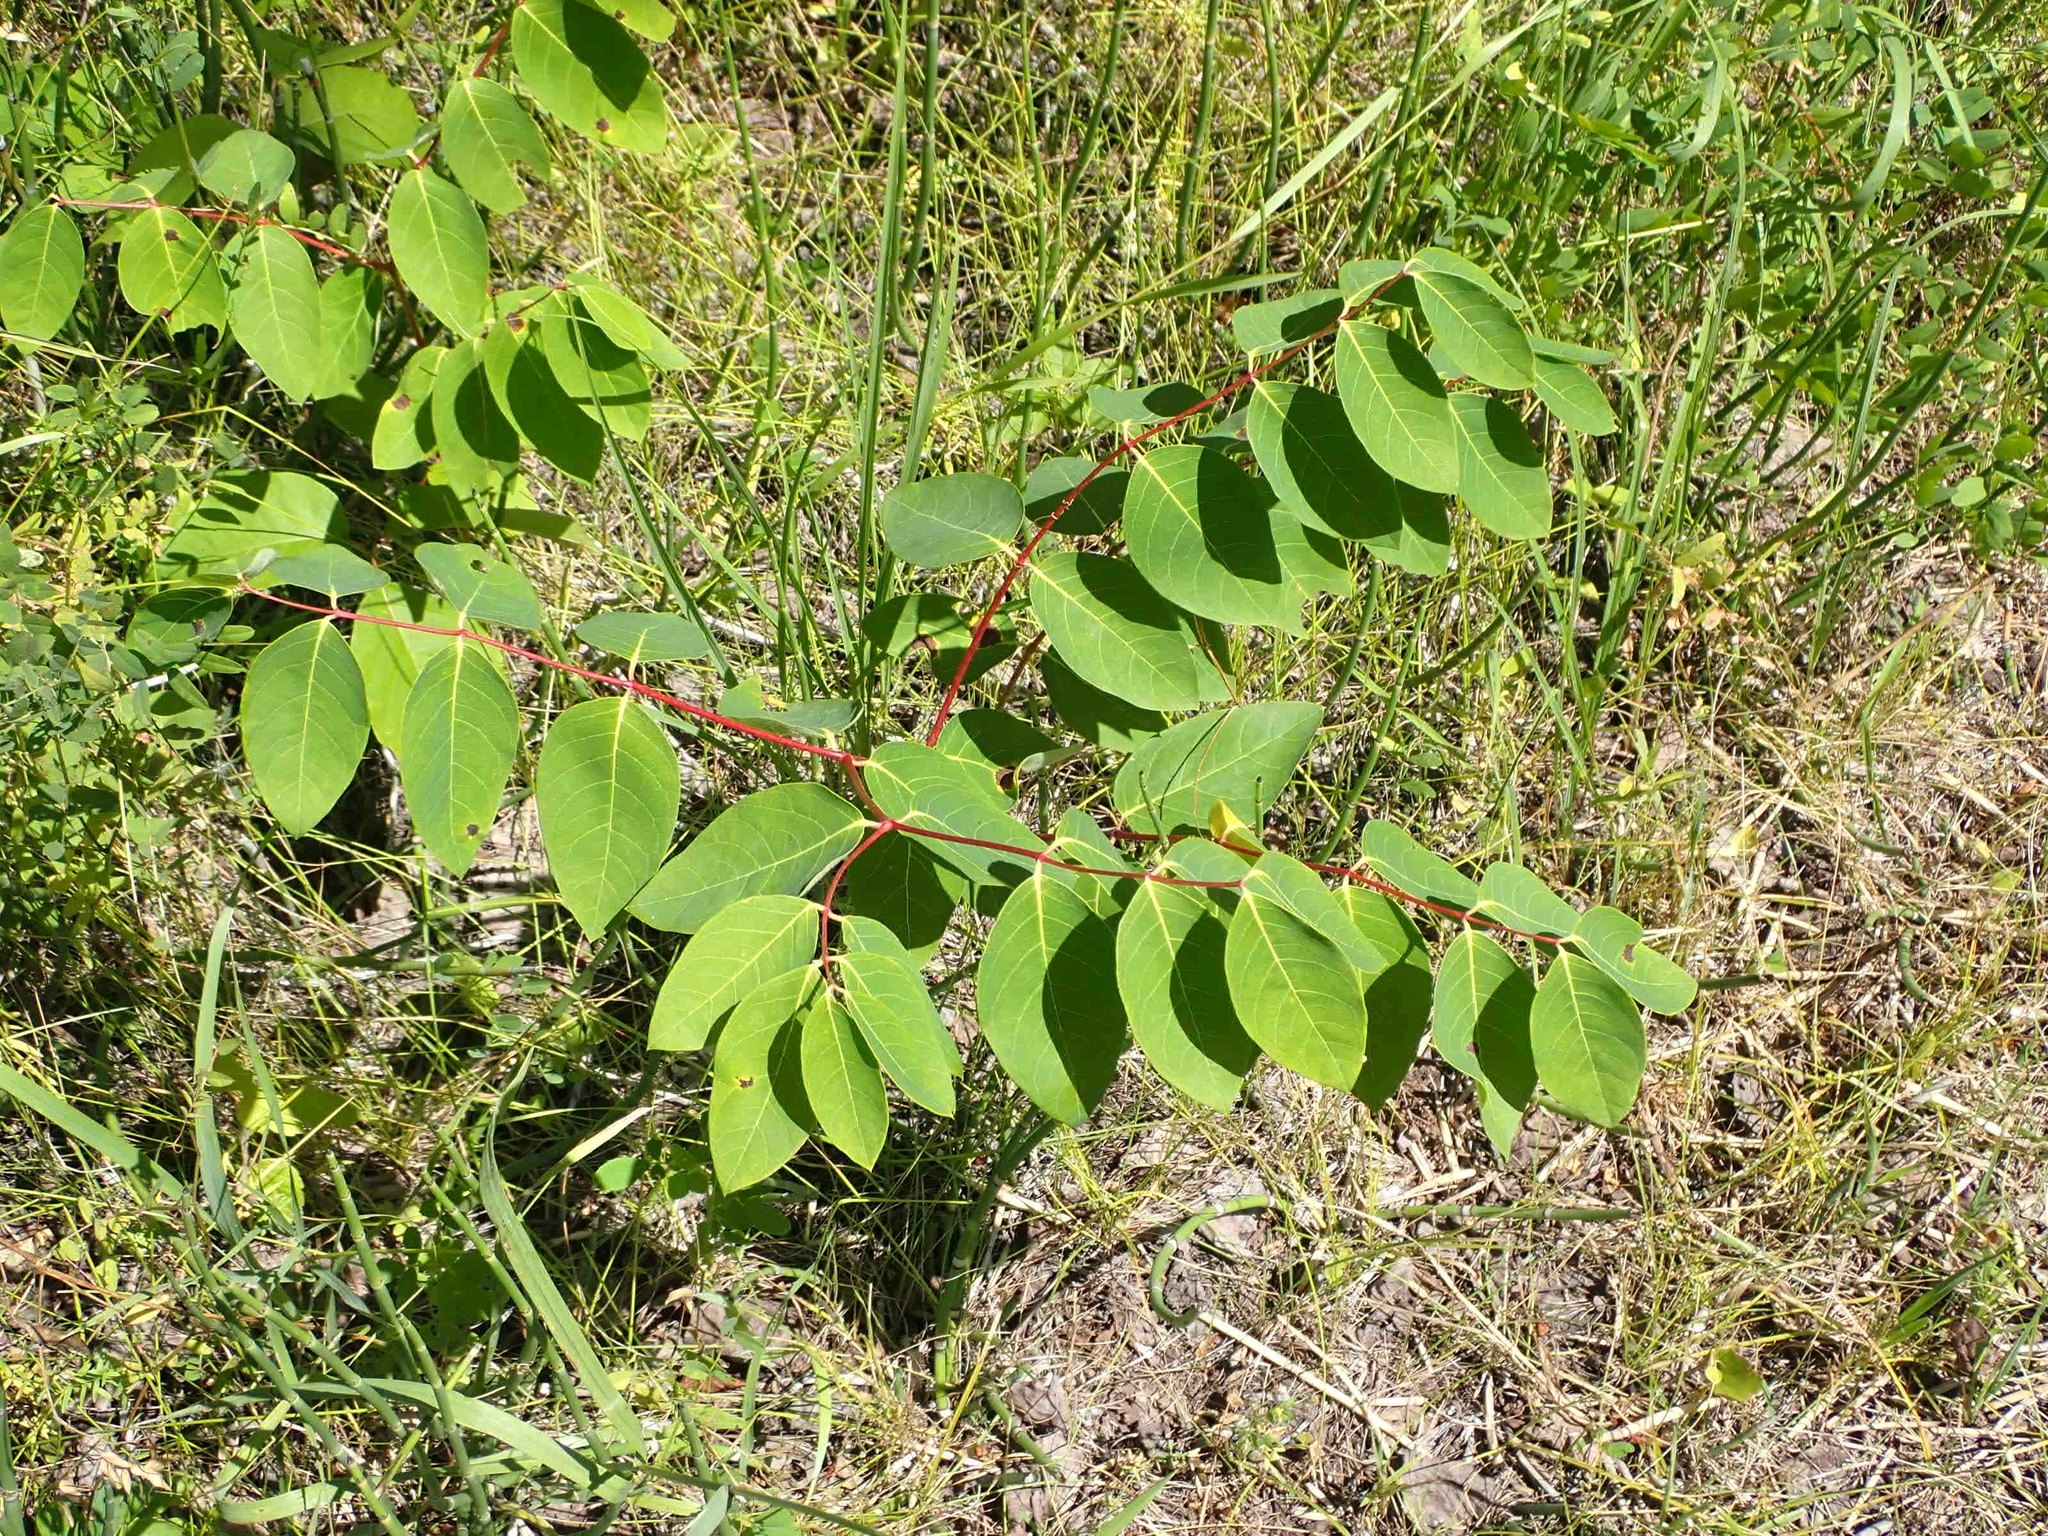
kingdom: Plantae
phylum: Tracheophyta
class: Magnoliopsida
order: Gentianales
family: Apocynaceae
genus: Apocynum
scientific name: Apocynum androsaemifolium
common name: Spreading dogbane
